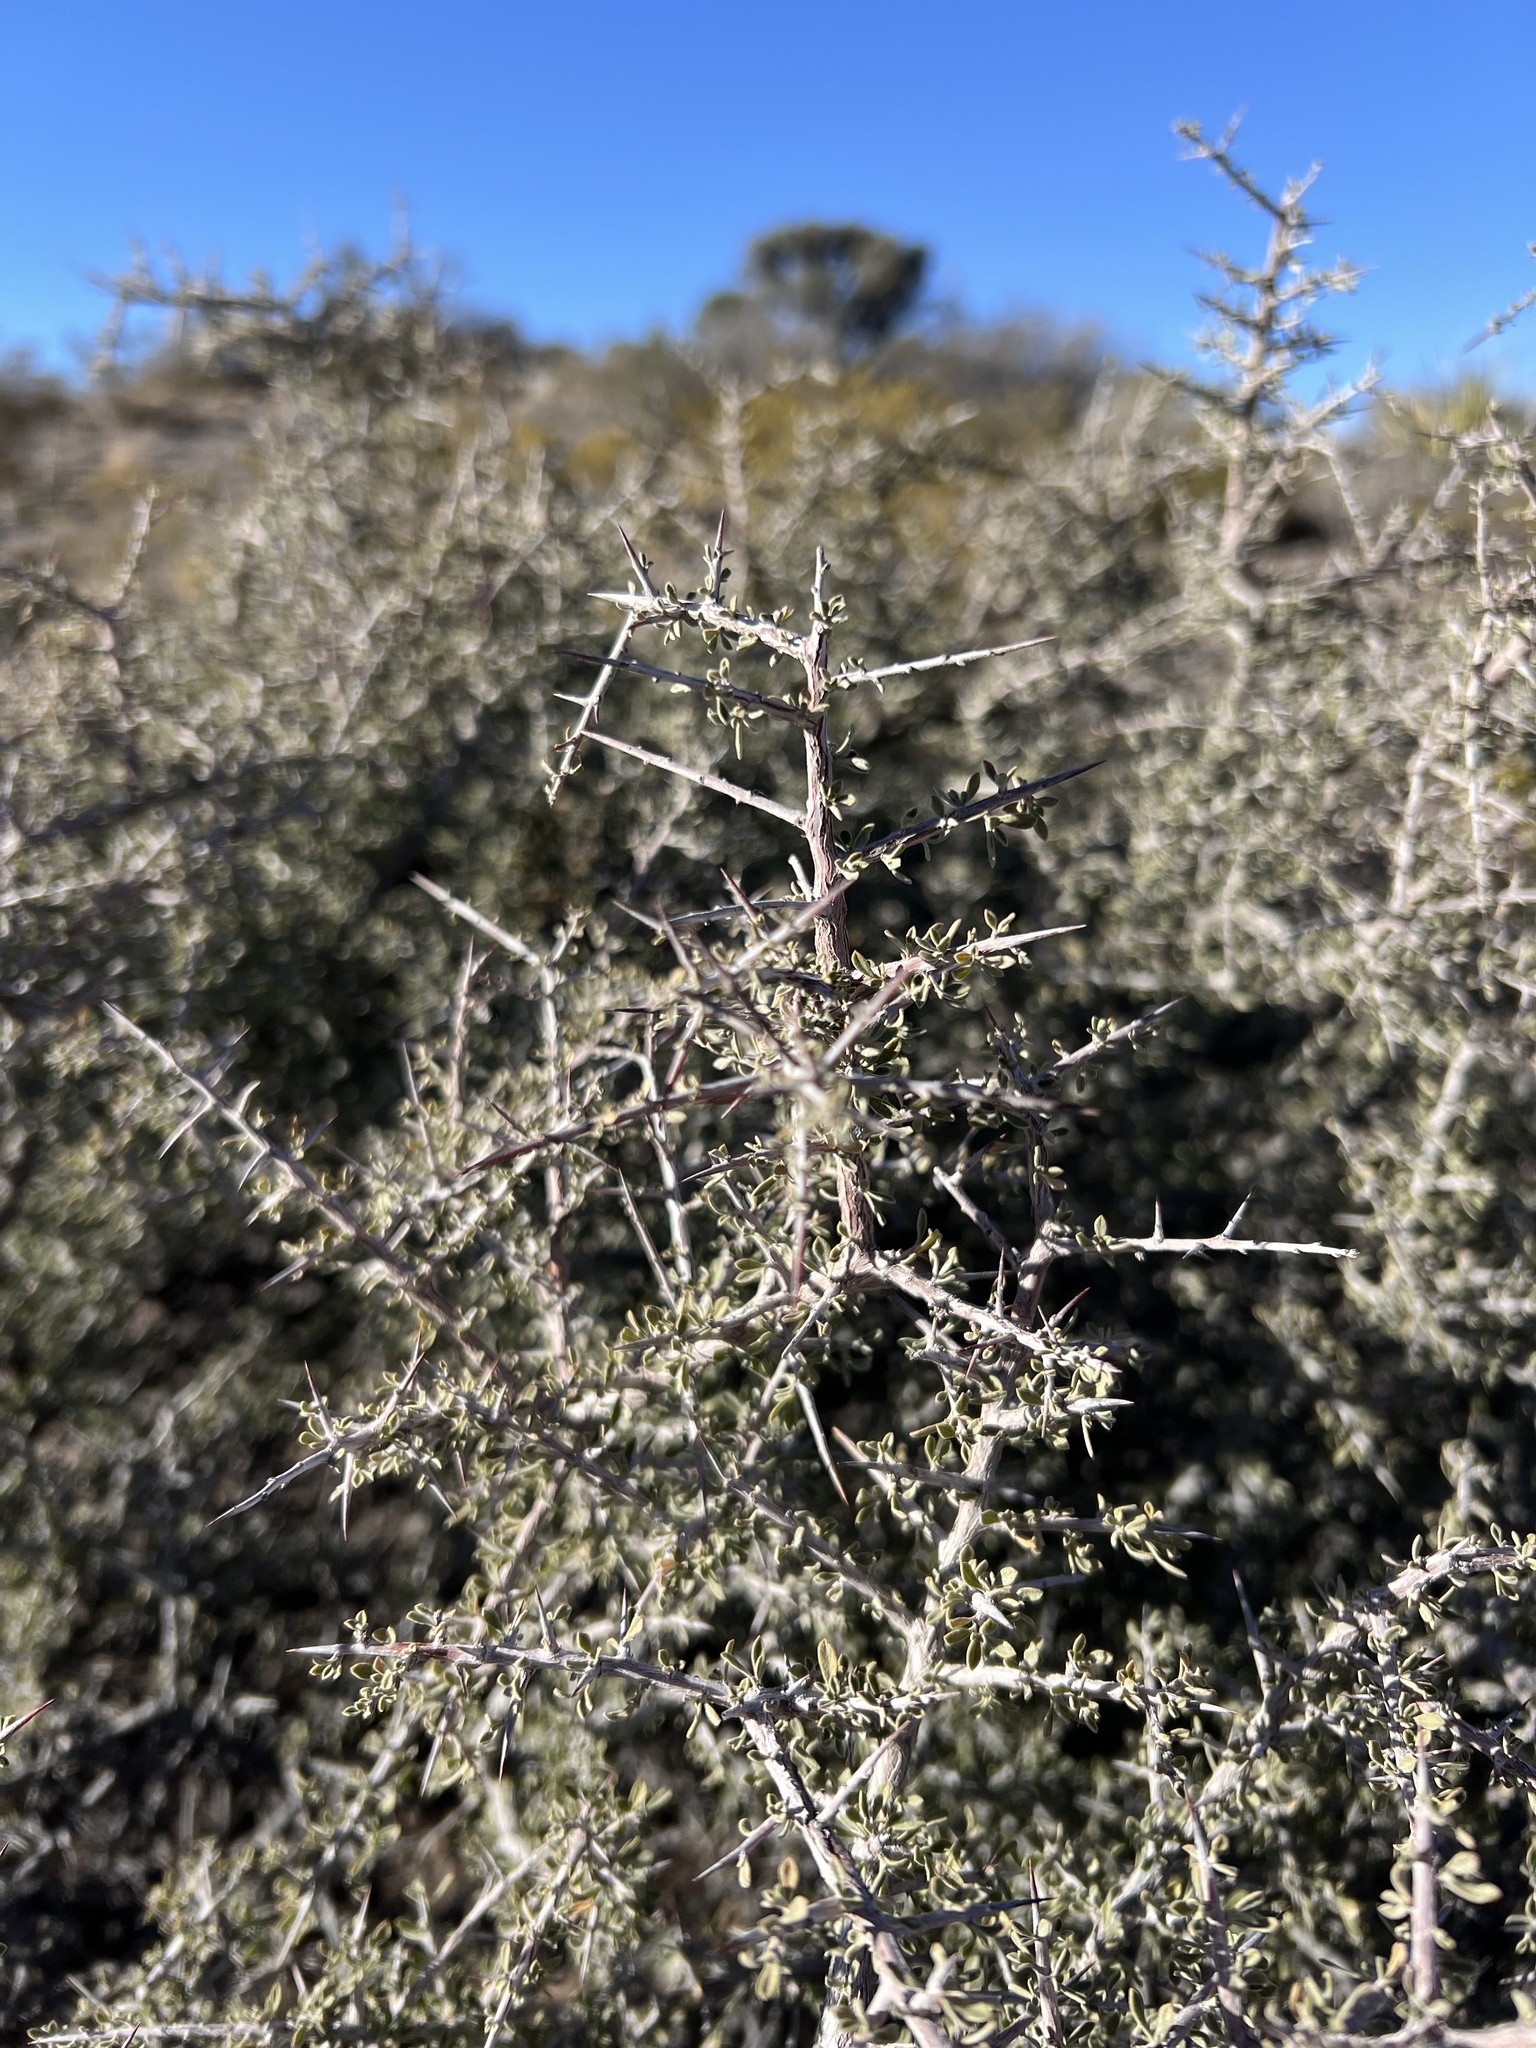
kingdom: Plantae
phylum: Tracheophyta
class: Magnoliopsida
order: Rosales
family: Rhamnaceae
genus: Condalia
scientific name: Condalia warnockii
